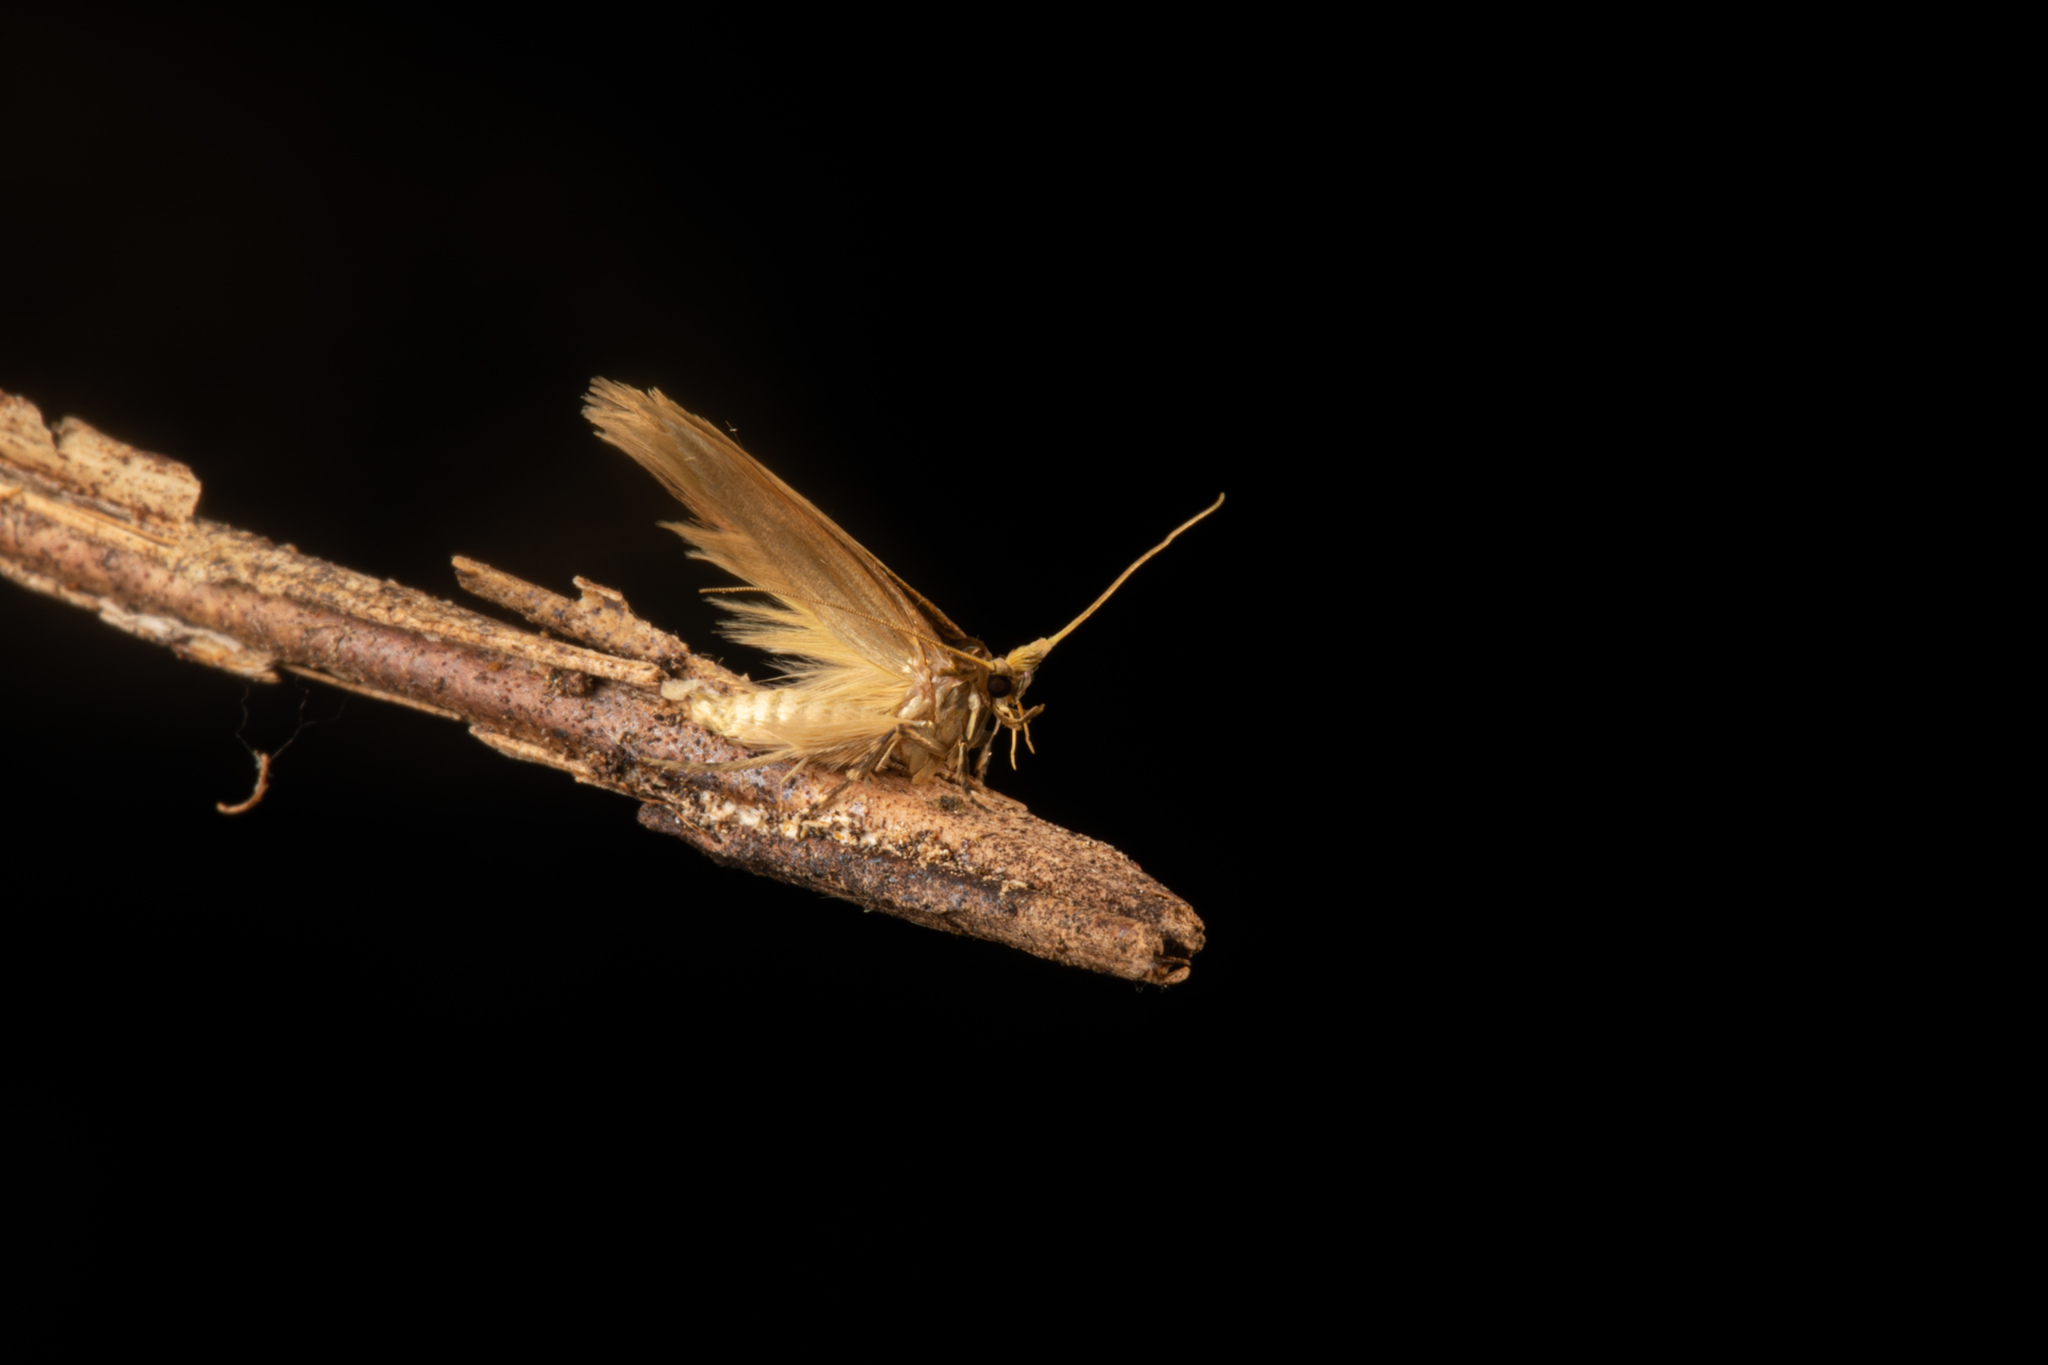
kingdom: Animalia
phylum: Arthropoda
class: Insecta
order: Lepidoptera
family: Tineidae
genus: Opogona
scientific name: Opogona omoscopa
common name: Moth
